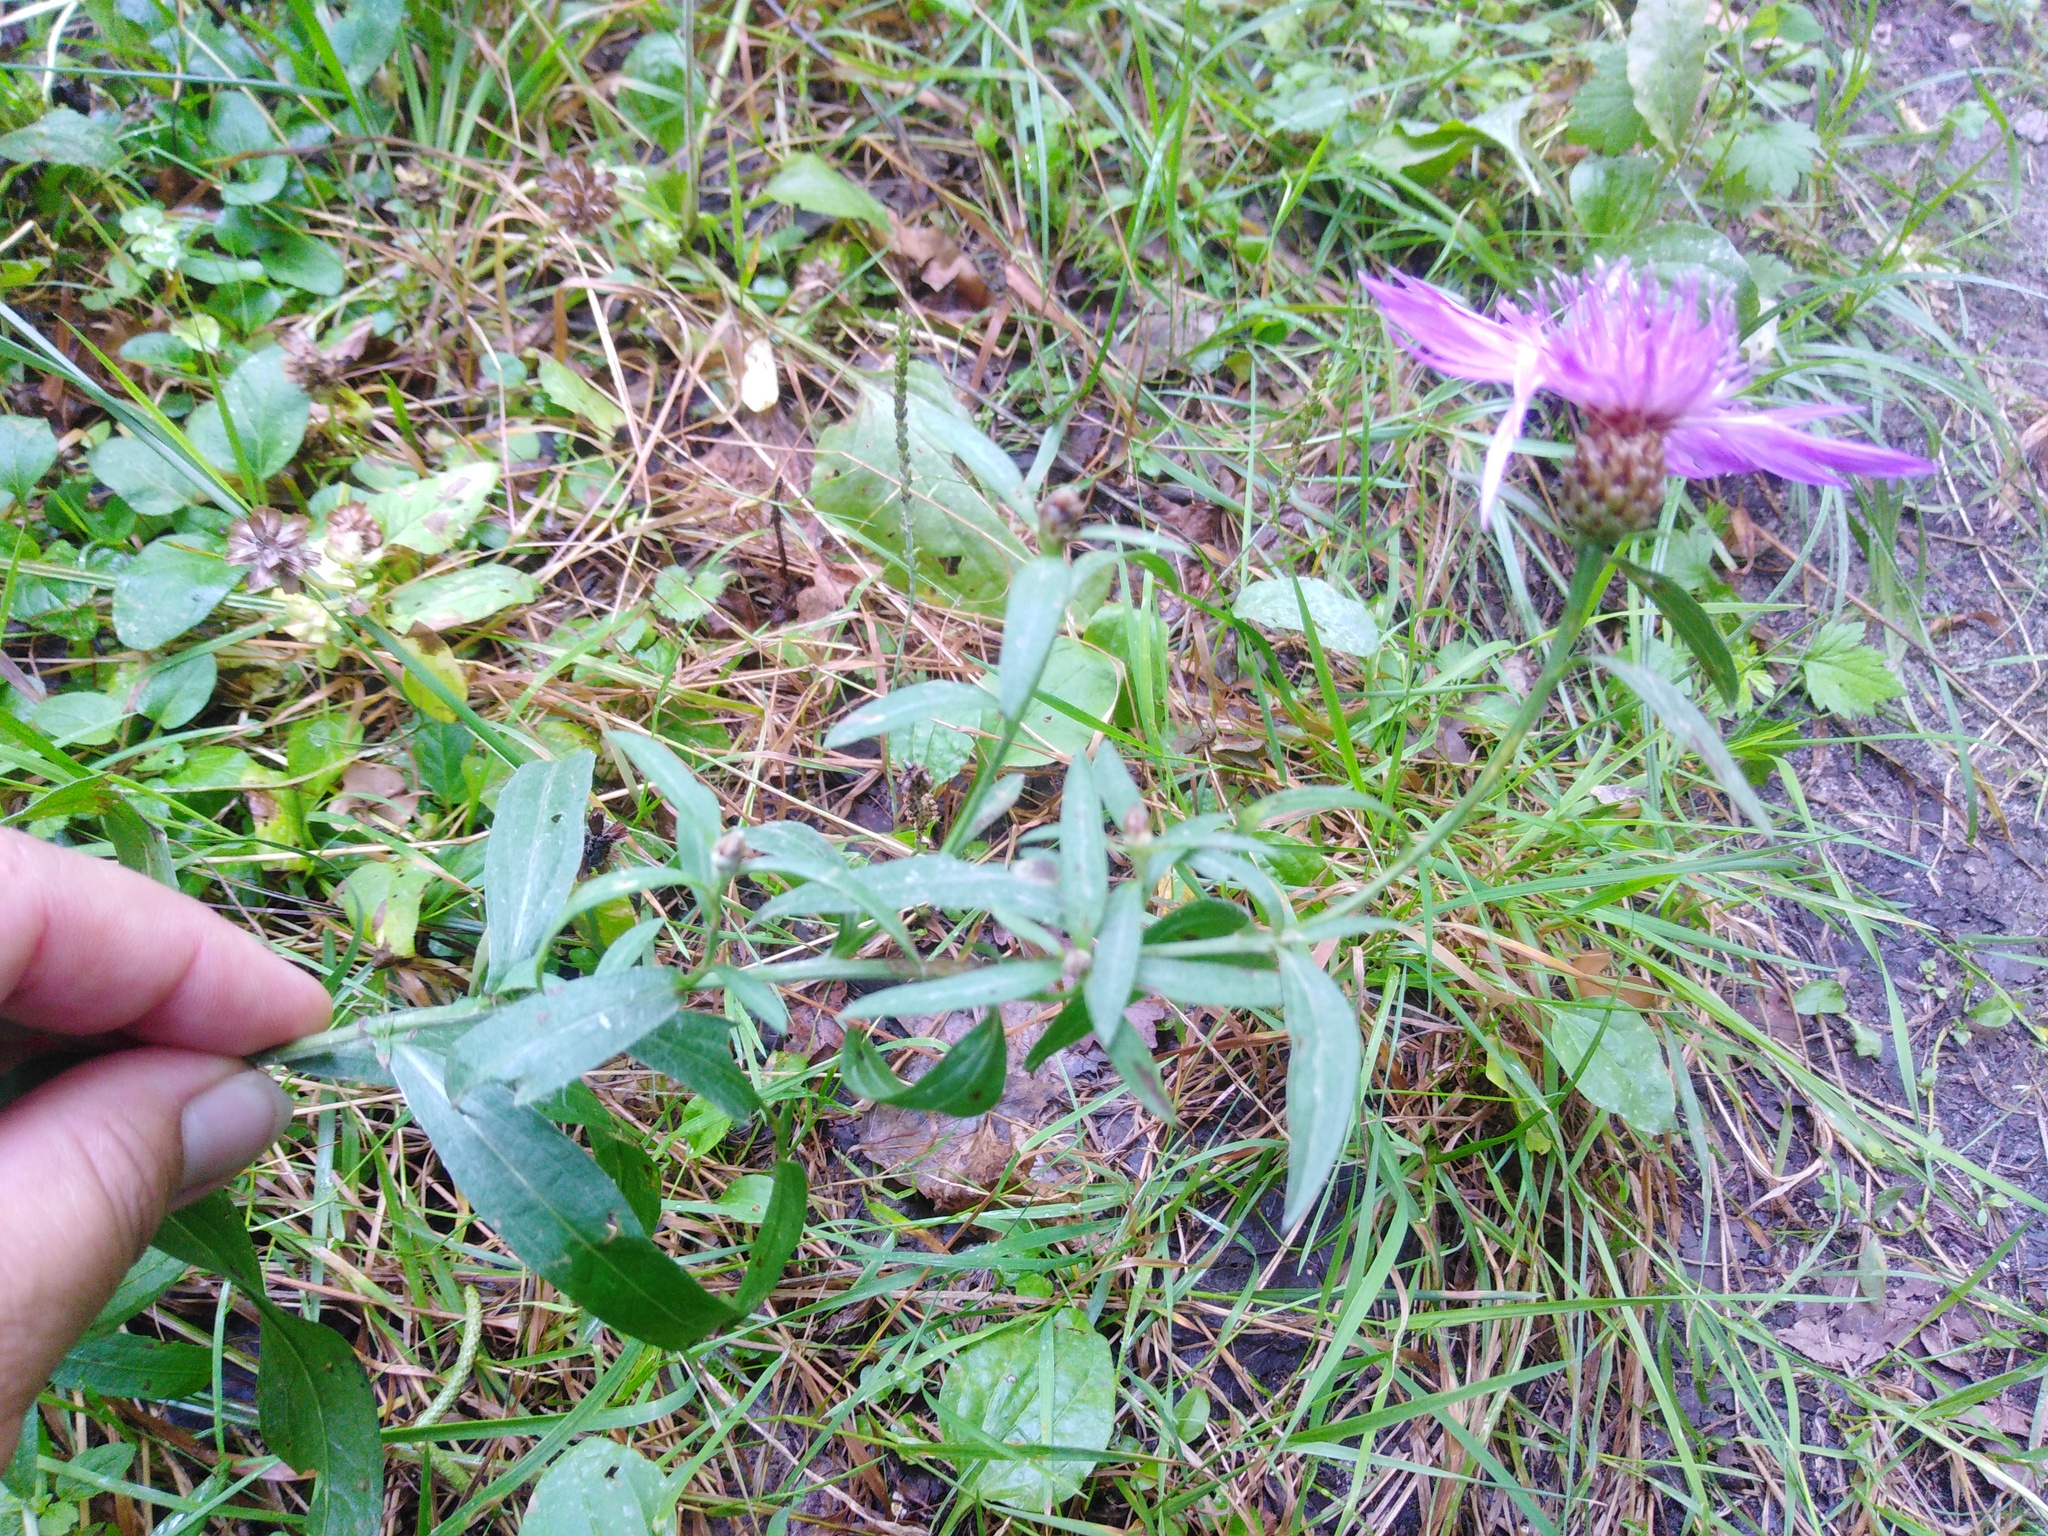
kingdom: Plantae
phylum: Tracheophyta
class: Magnoliopsida
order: Asterales
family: Asteraceae
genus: Centaurea
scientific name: Centaurea jacea
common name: Brown knapweed
